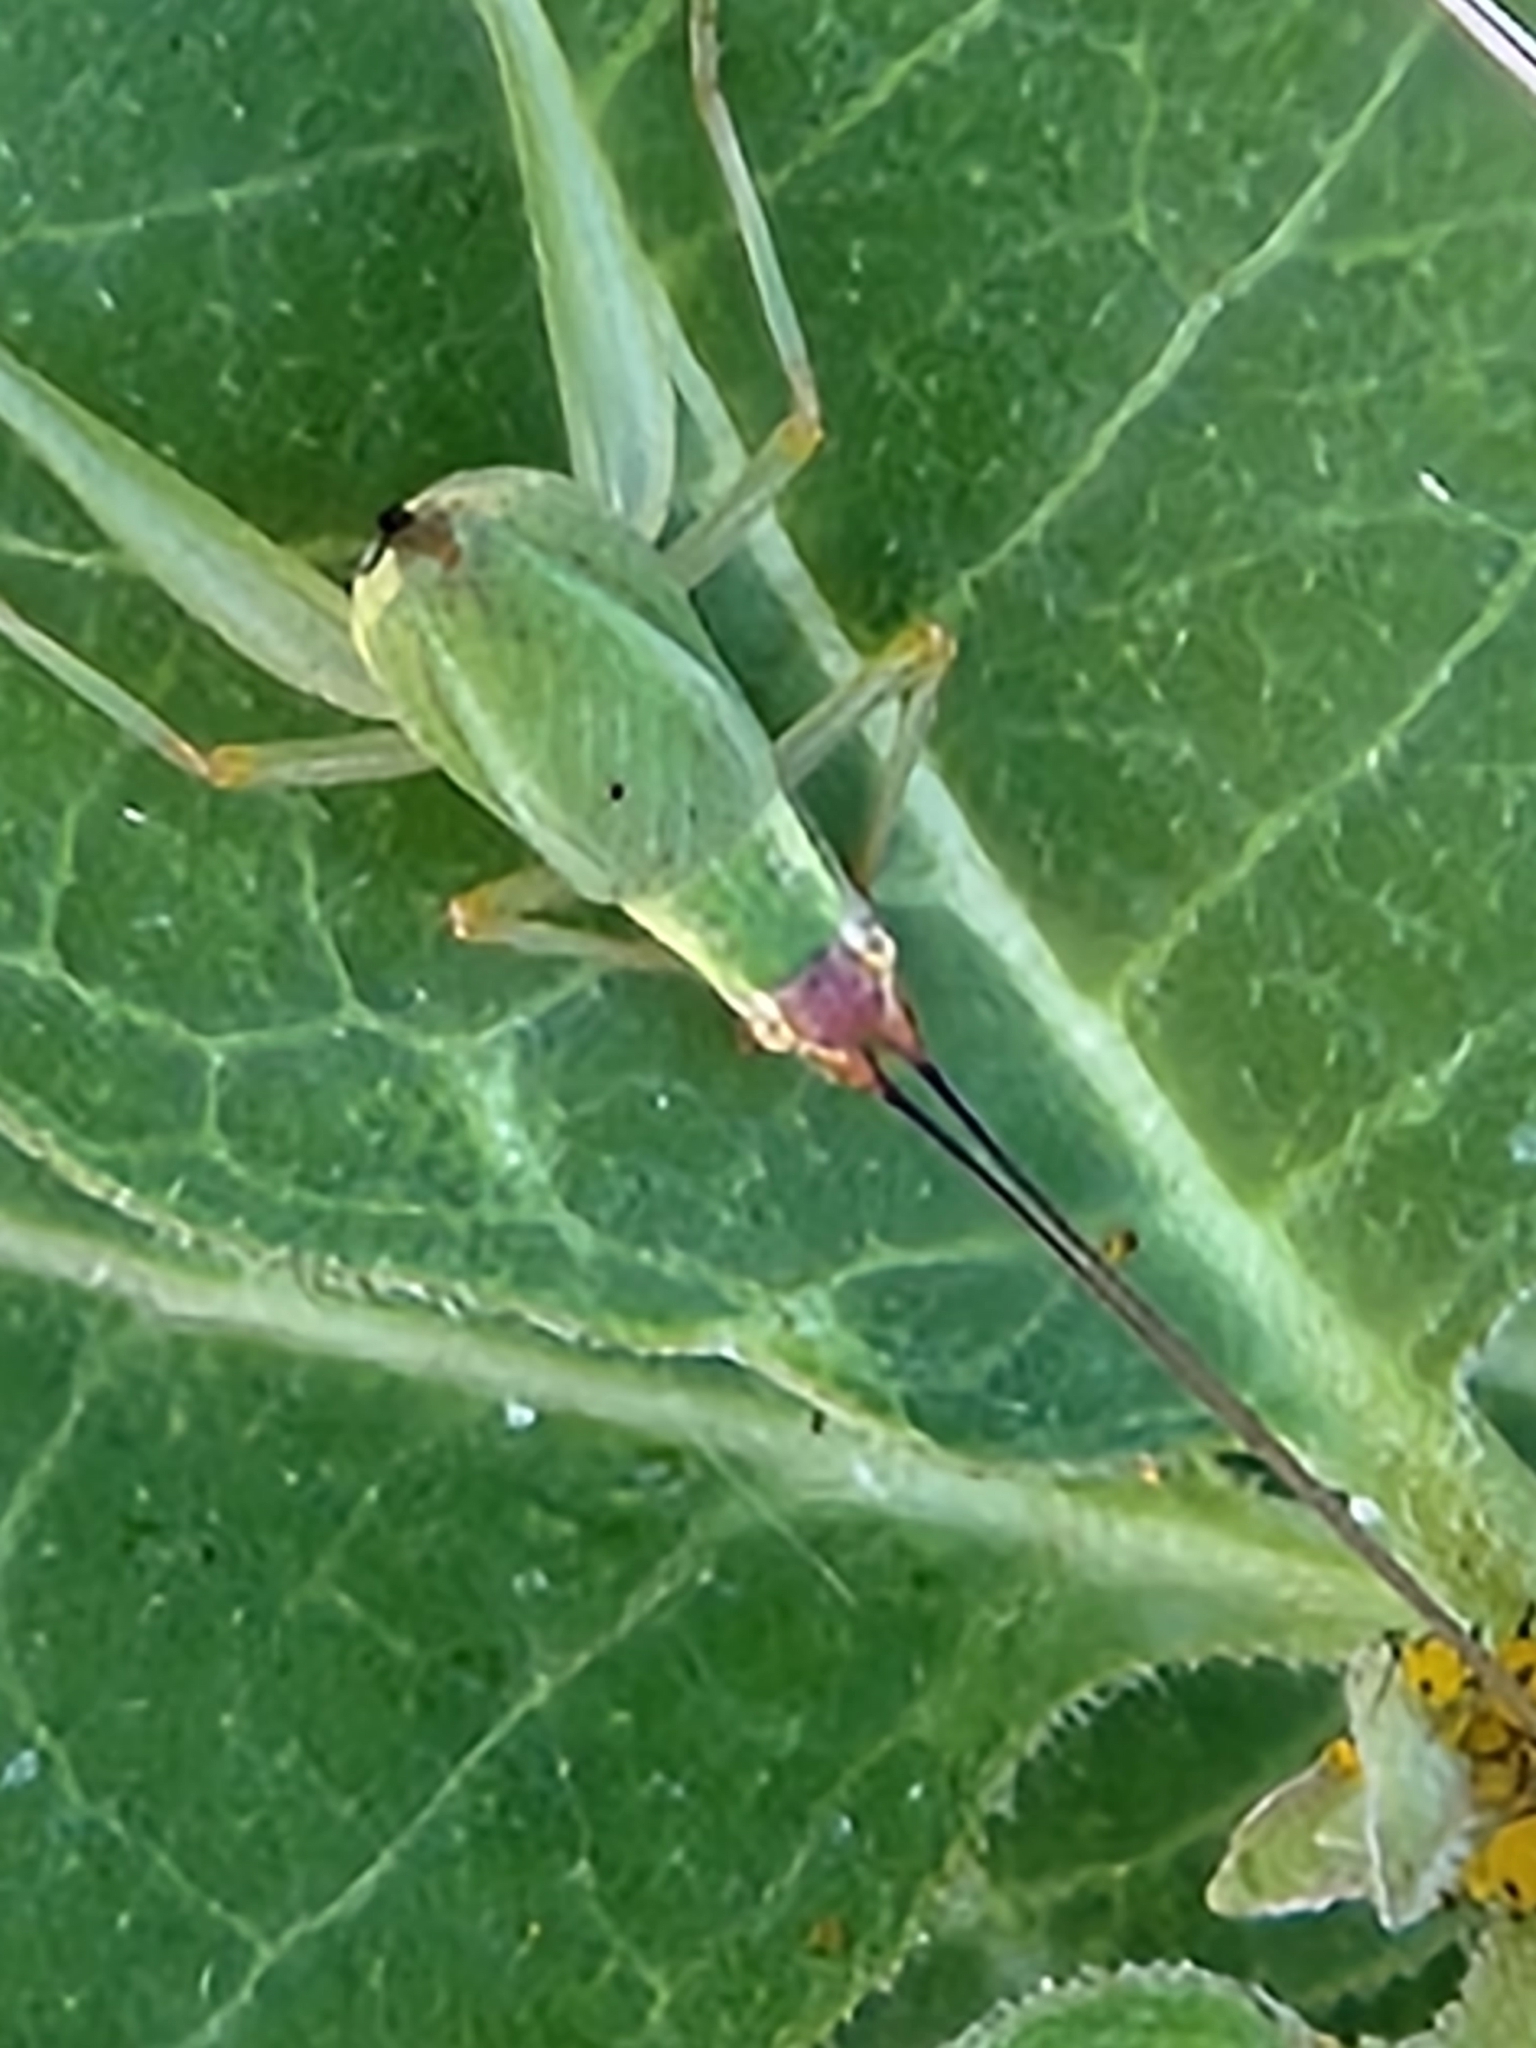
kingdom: Animalia
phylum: Arthropoda
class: Insecta
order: Orthoptera
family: Gryllidae
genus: Oecanthus
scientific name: Oecanthus californicus
